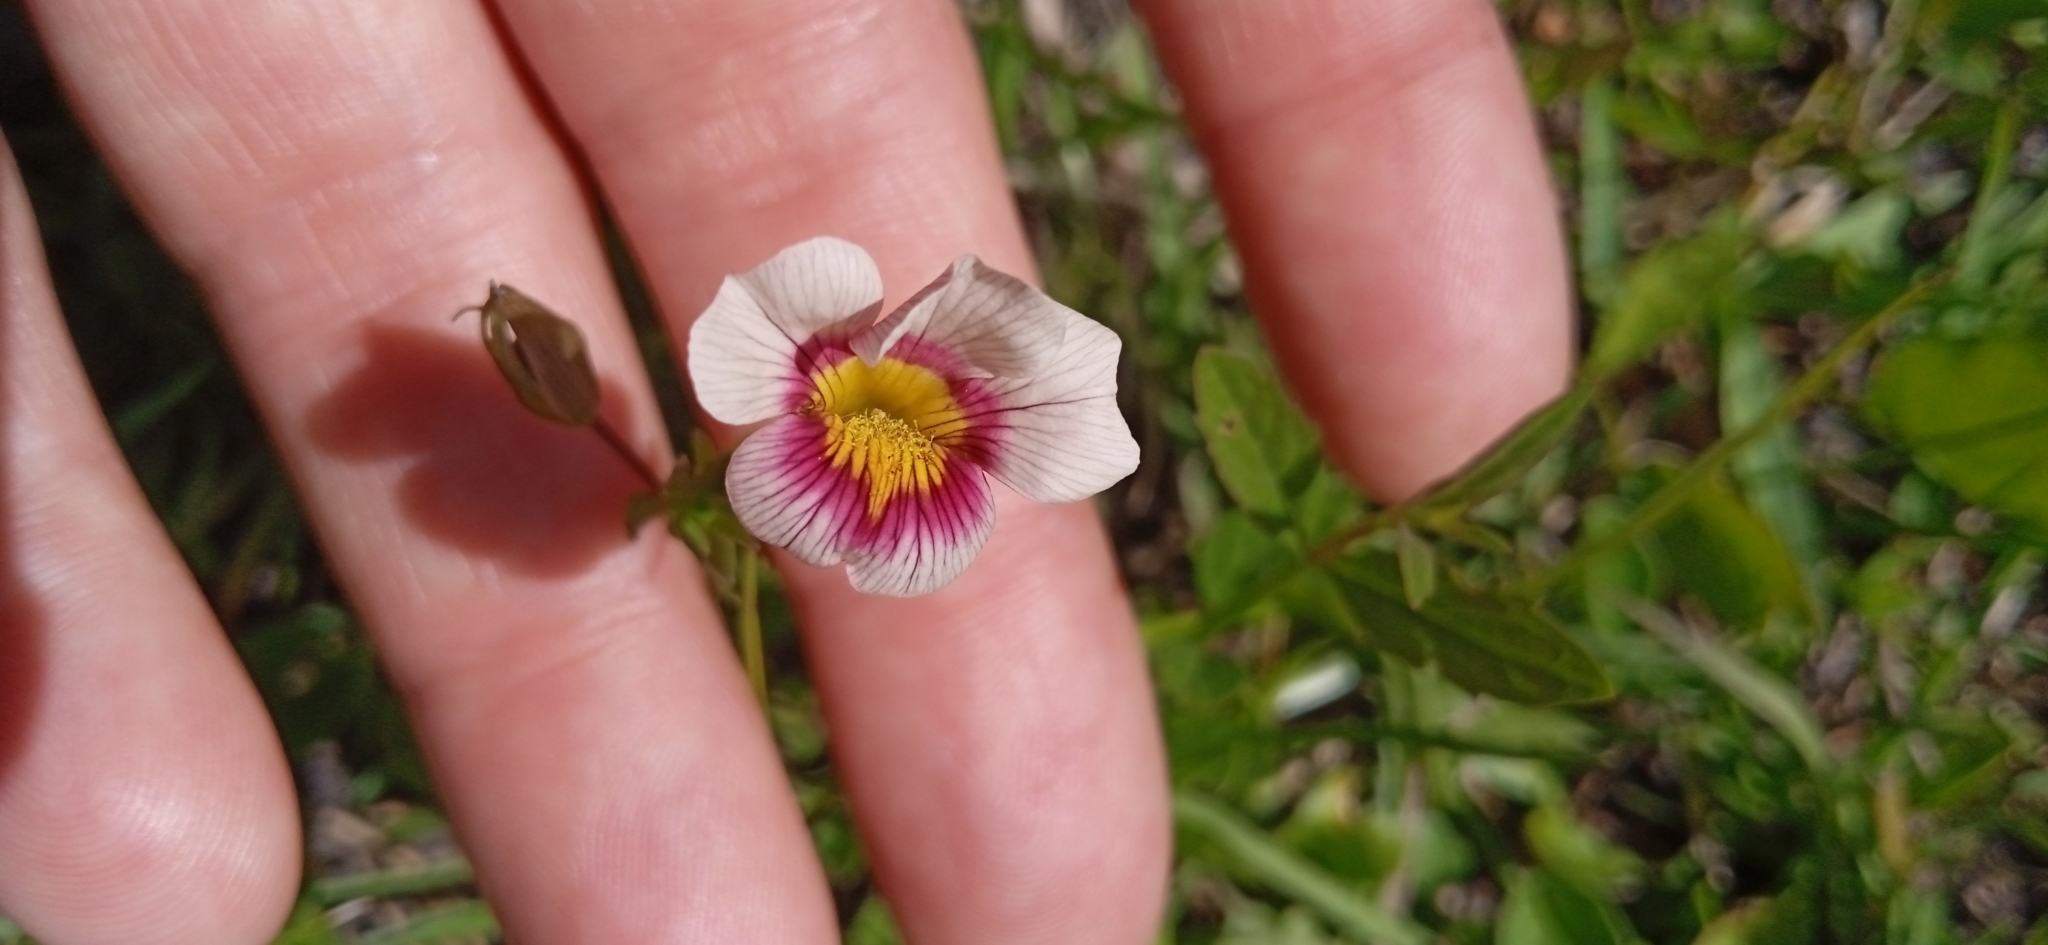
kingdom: Plantae
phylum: Tracheophyta
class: Magnoliopsida
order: Lamiales
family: Plantaginaceae
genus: Mecardonia
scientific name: Mecardonia procumbens
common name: Baby jump-up
